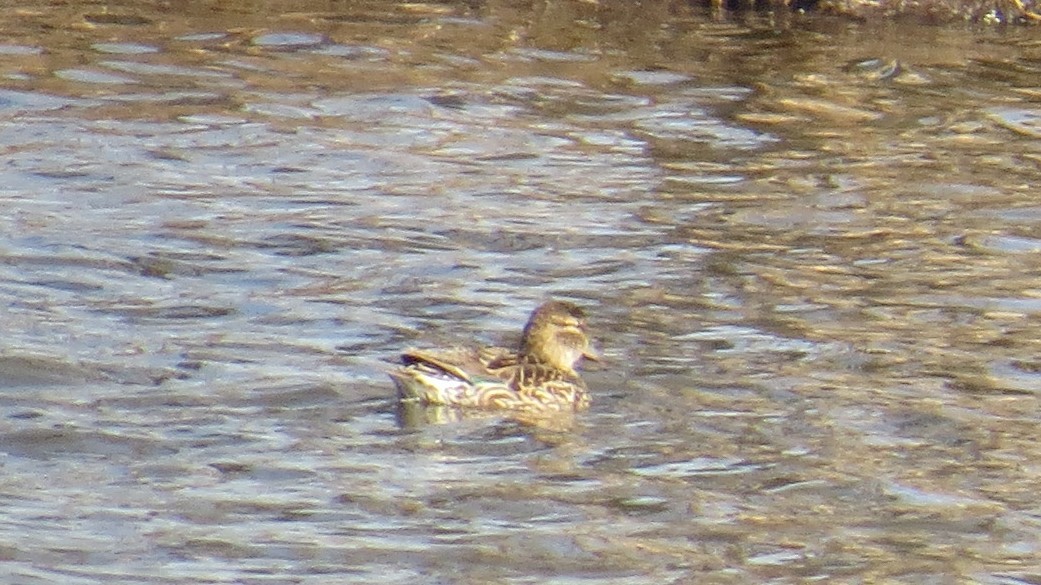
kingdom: Animalia
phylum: Chordata
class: Aves
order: Anseriformes
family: Anatidae
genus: Anas
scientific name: Anas crecca
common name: Eurasian teal
